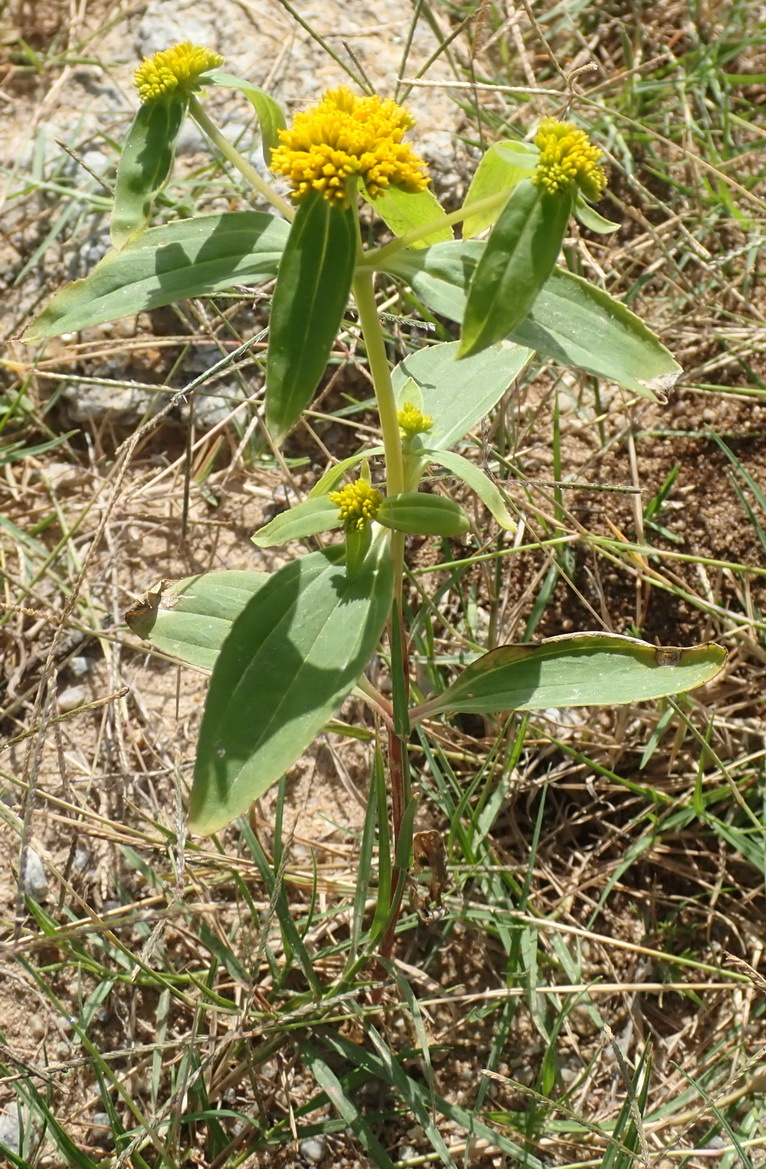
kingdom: Plantae
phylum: Tracheophyta
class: Magnoliopsida
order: Asterales
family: Asteraceae
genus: Flaveria
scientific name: Flaveria bidentis
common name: Coastal plain yellowtops
